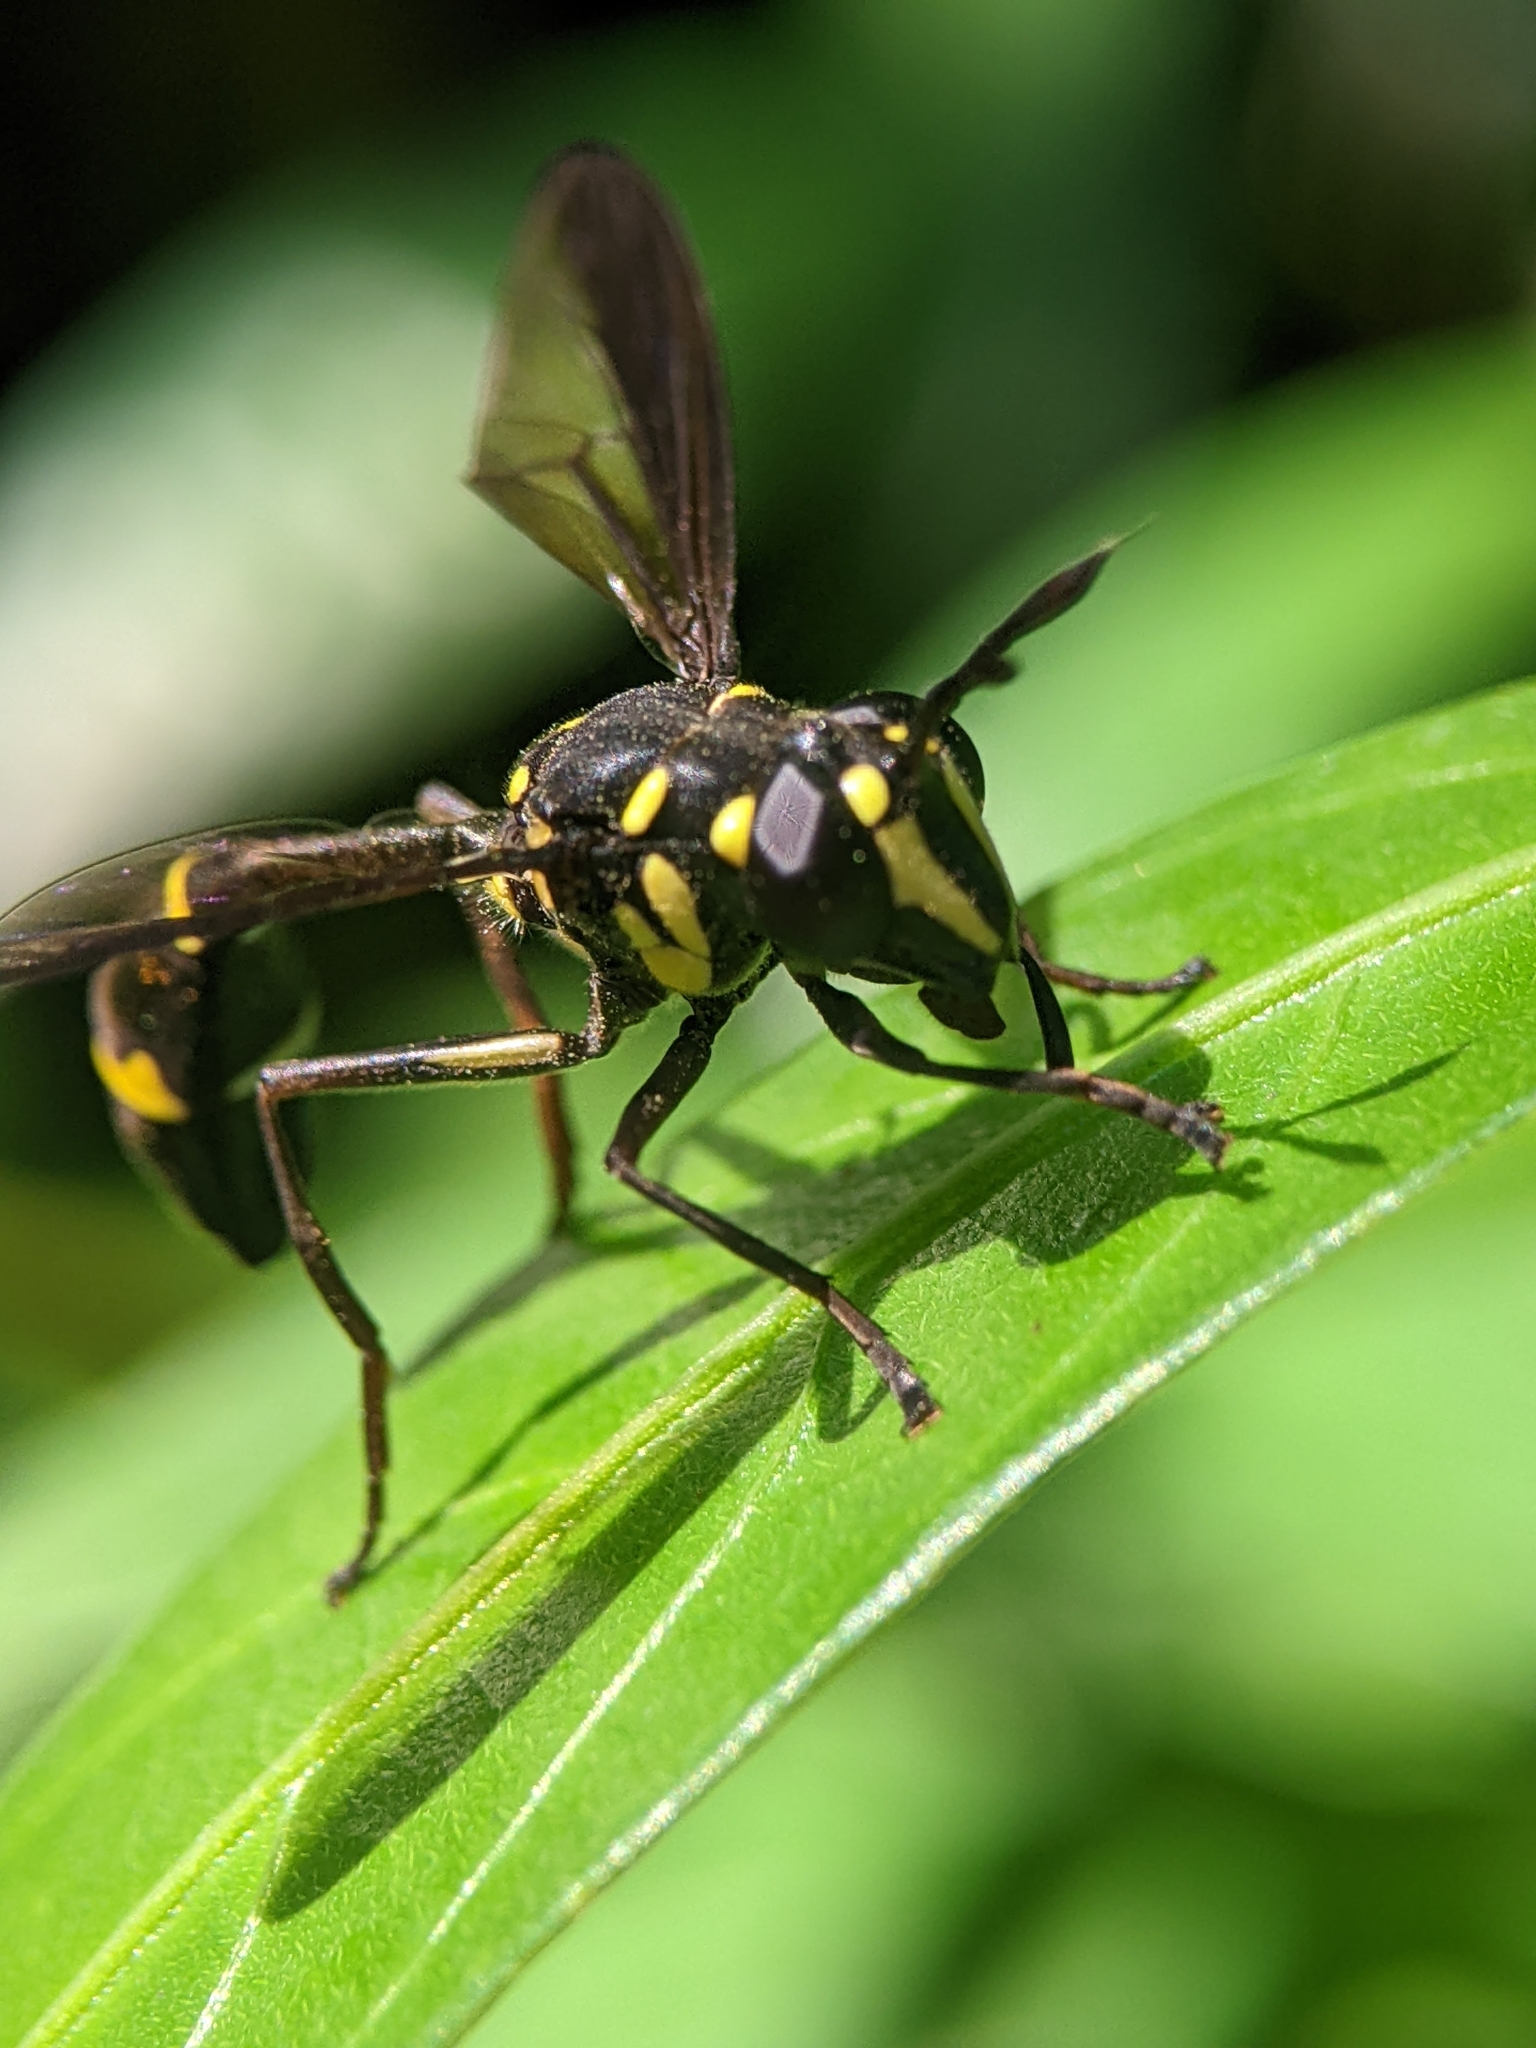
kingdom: Animalia
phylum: Arthropoda
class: Insecta
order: Diptera
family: Syrphidae
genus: Monoceromyia
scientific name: Monoceromyia
